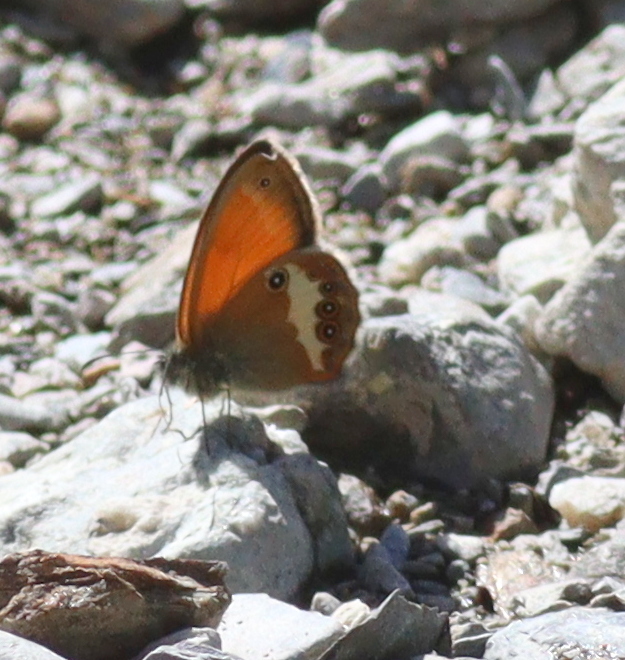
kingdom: Animalia
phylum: Arthropoda
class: Insecta
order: Lepidoptera
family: Nymphalidae
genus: Coenonympha
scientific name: Coenonympha arcania
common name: Pearly heath
